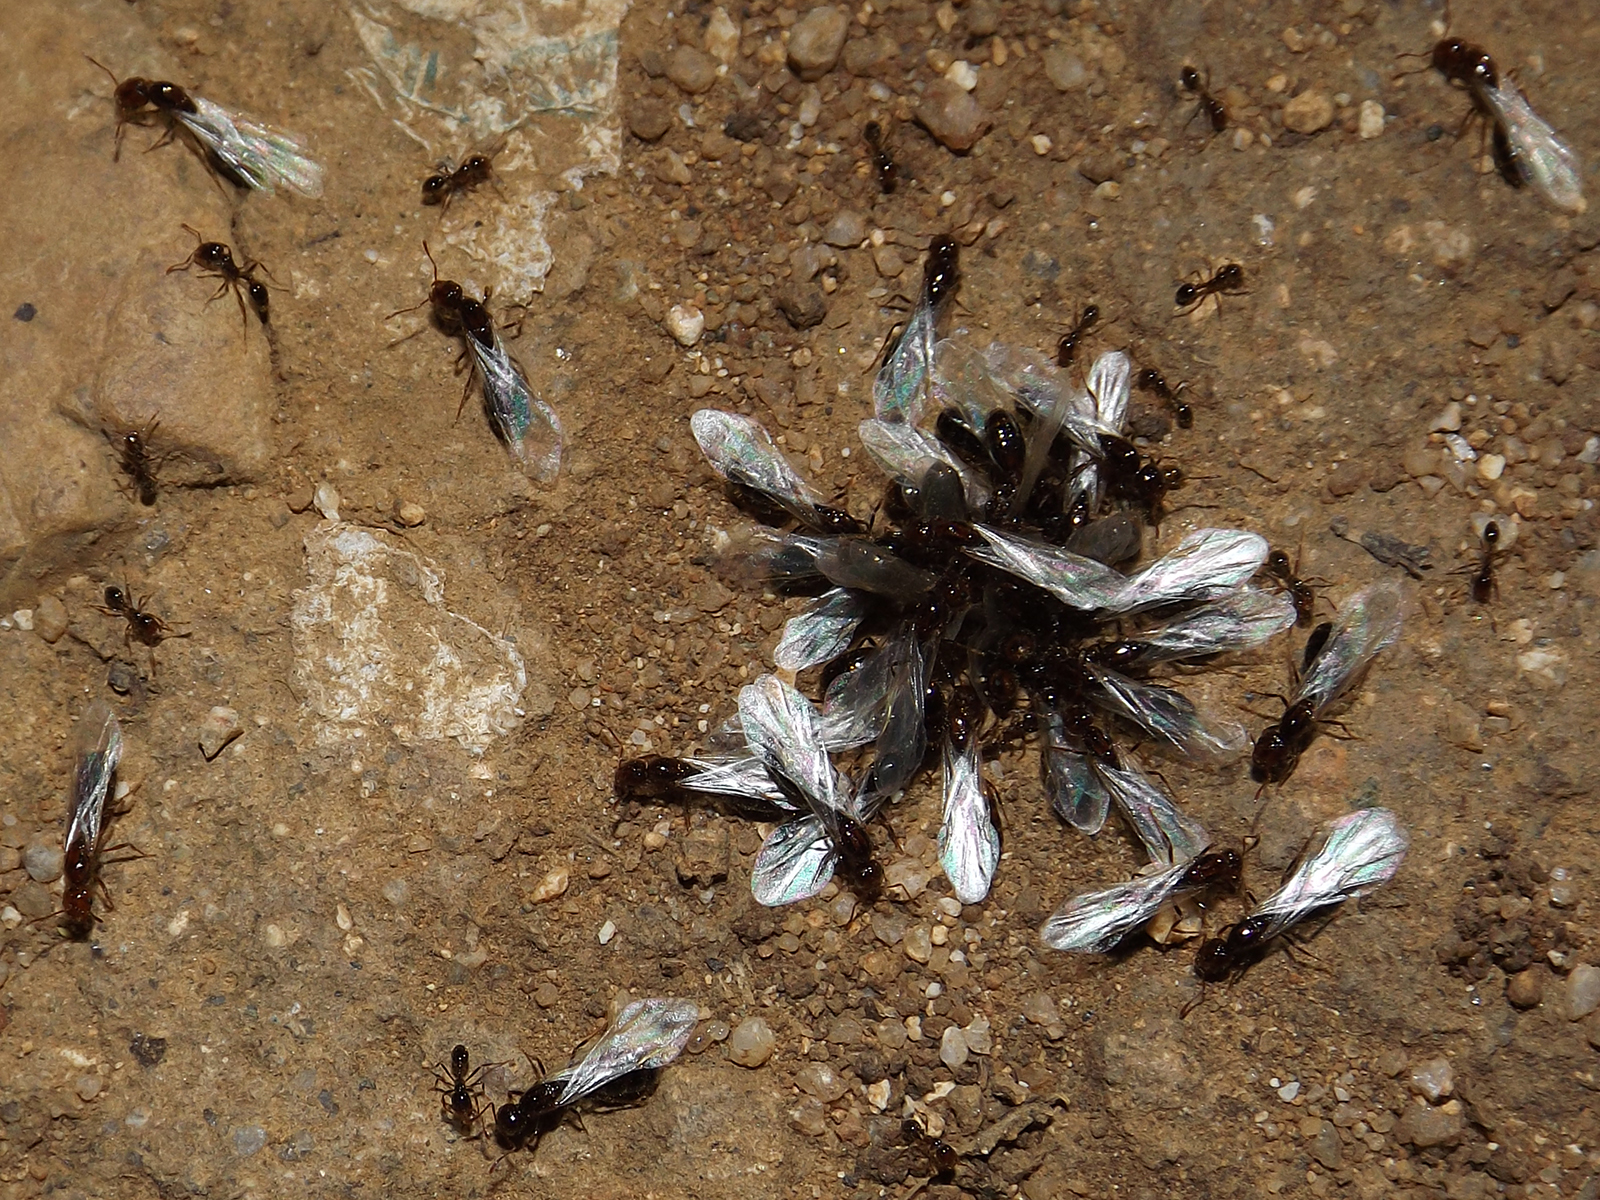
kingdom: Animalia
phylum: Arthropoda
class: Insecta
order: Hymenoptera
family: Formicidae
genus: Solenopsis
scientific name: Solenopsis gayi
